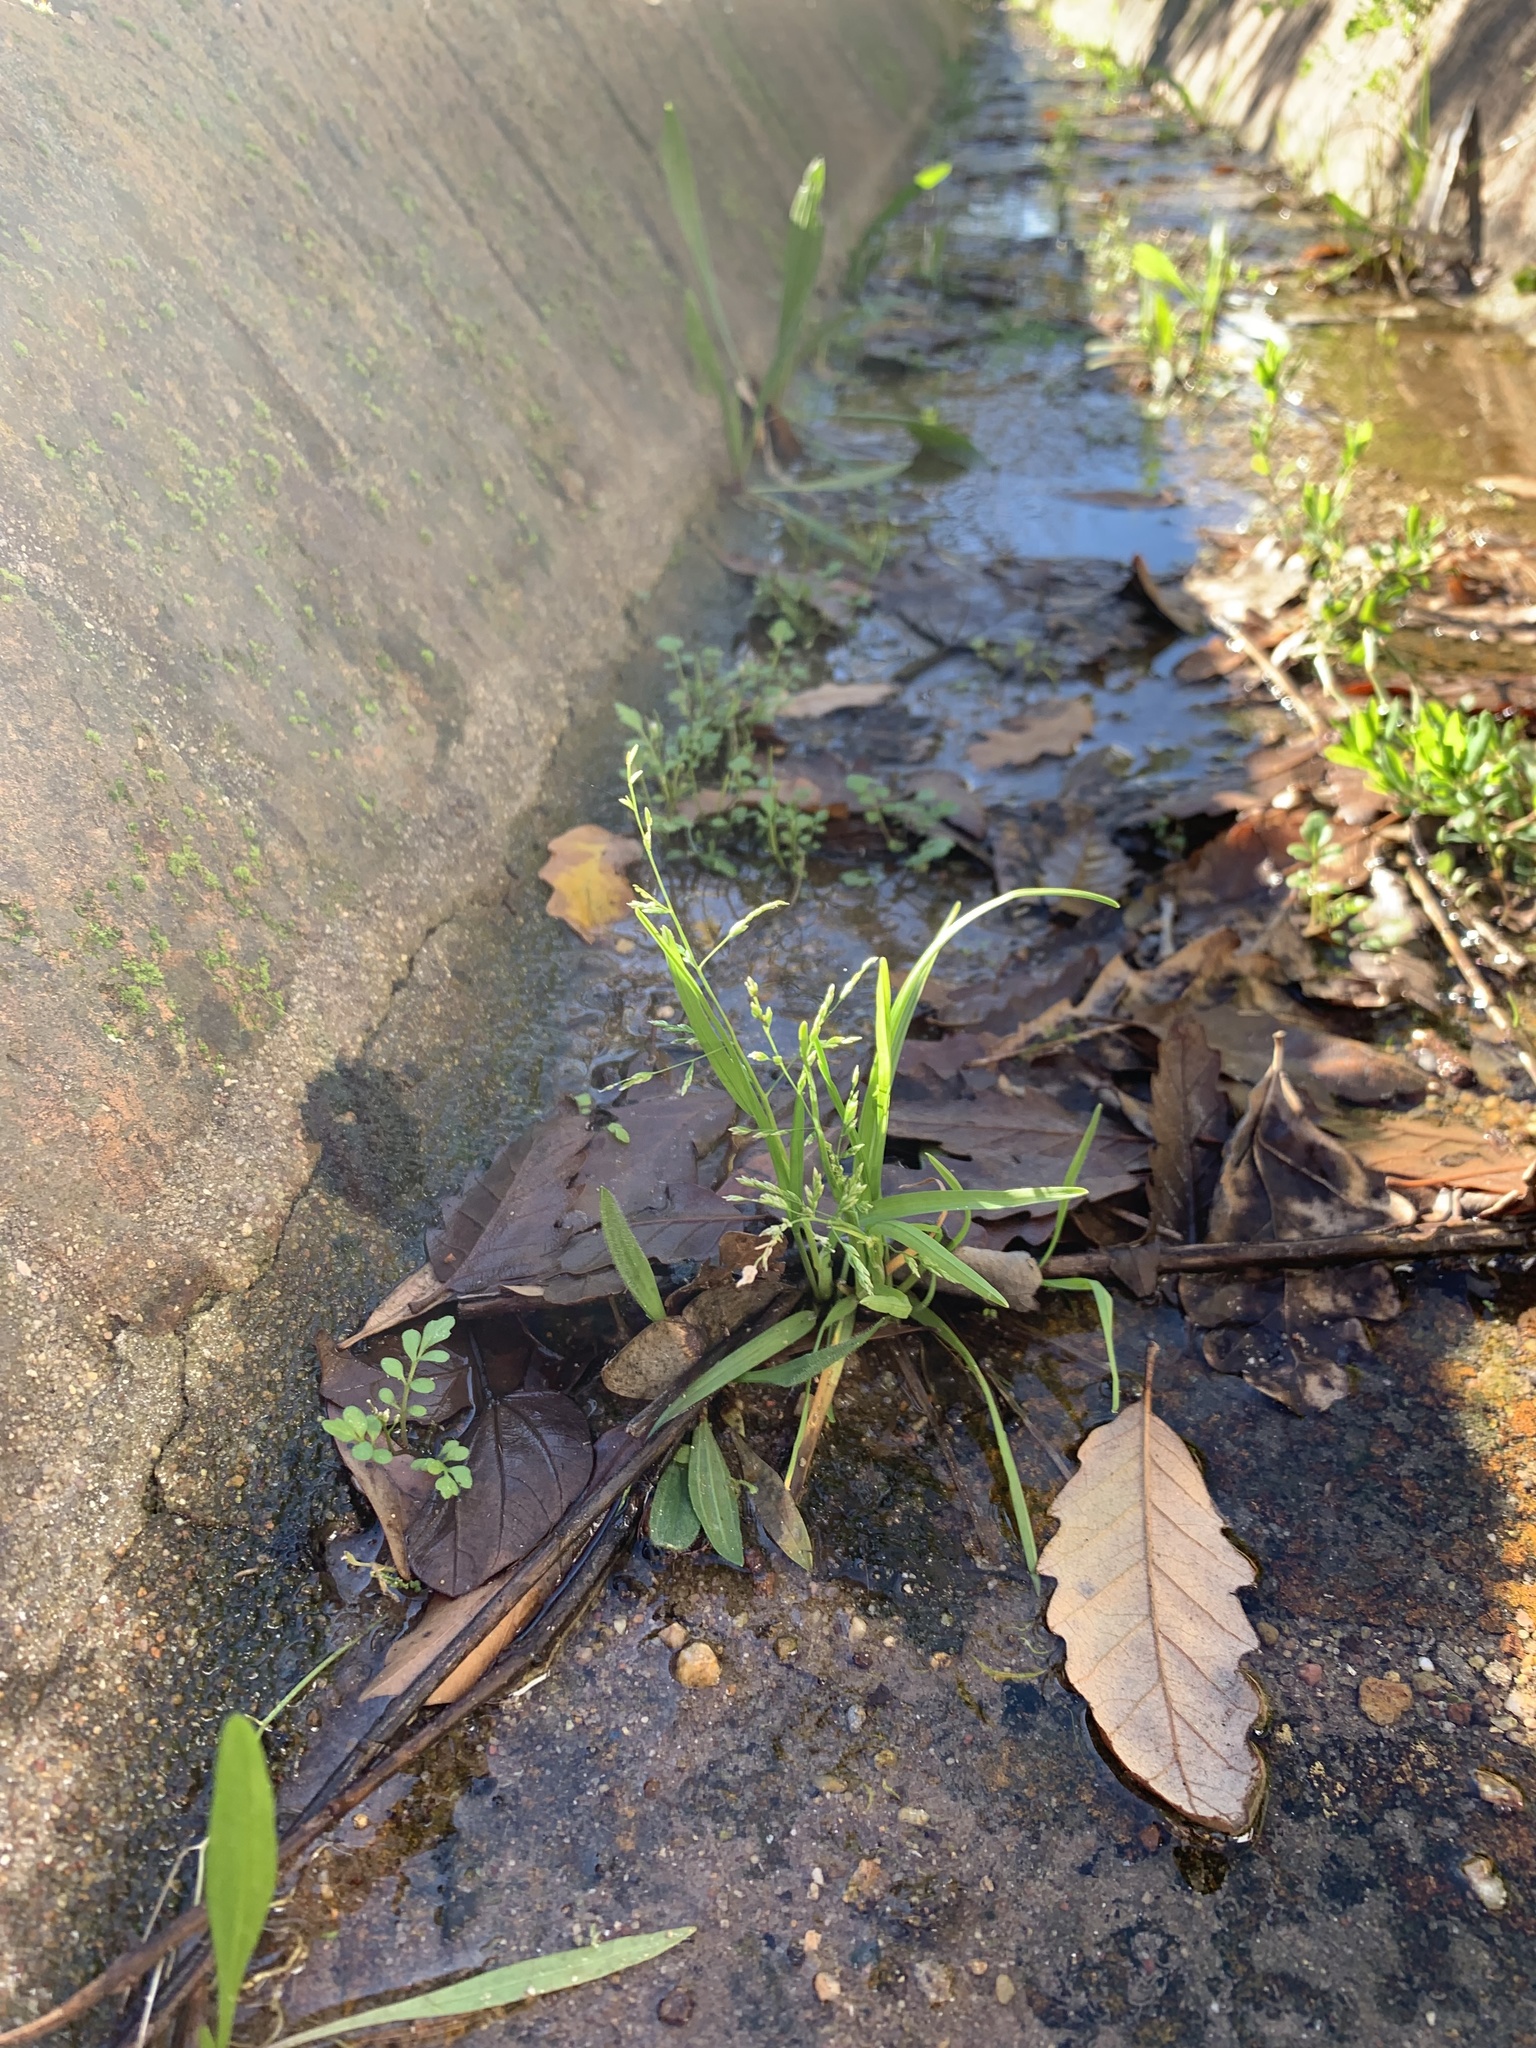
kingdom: Plantae
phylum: Tracheophyta
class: Liliopsida
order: Poales
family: Poaceae
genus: Poa
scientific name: Poa annua
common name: Annual bluegrass
